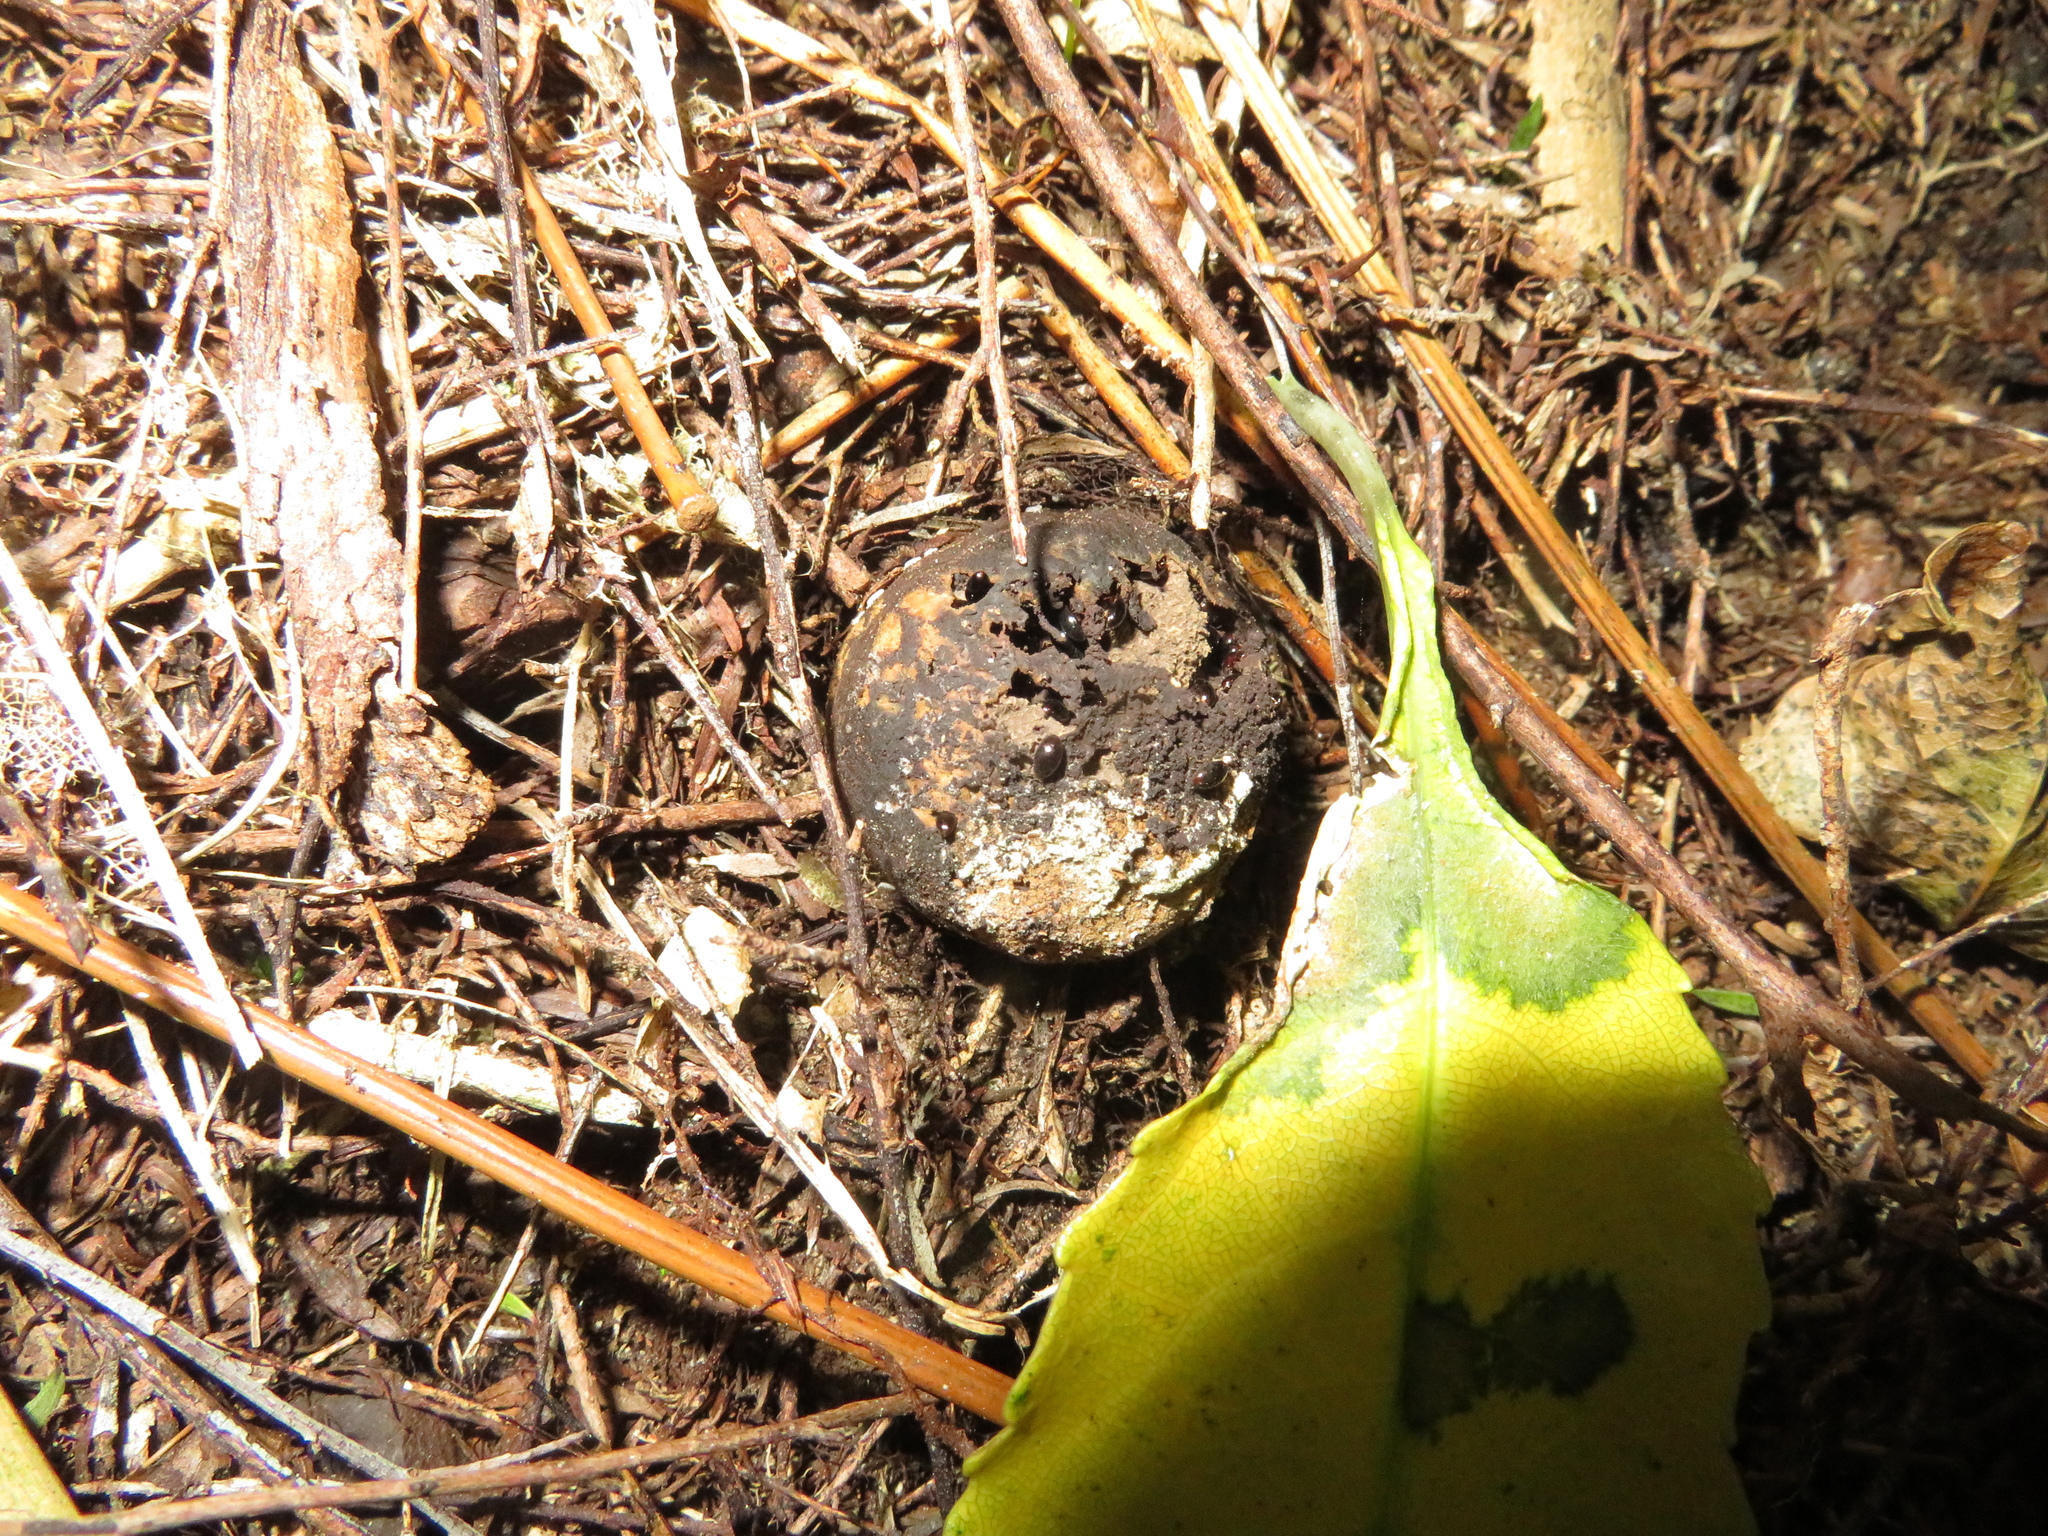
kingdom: Animalia
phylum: Arthropoda
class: Insecta
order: Coleoptera
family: Eucinetidae
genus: Eucinetus
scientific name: Eucinetus
